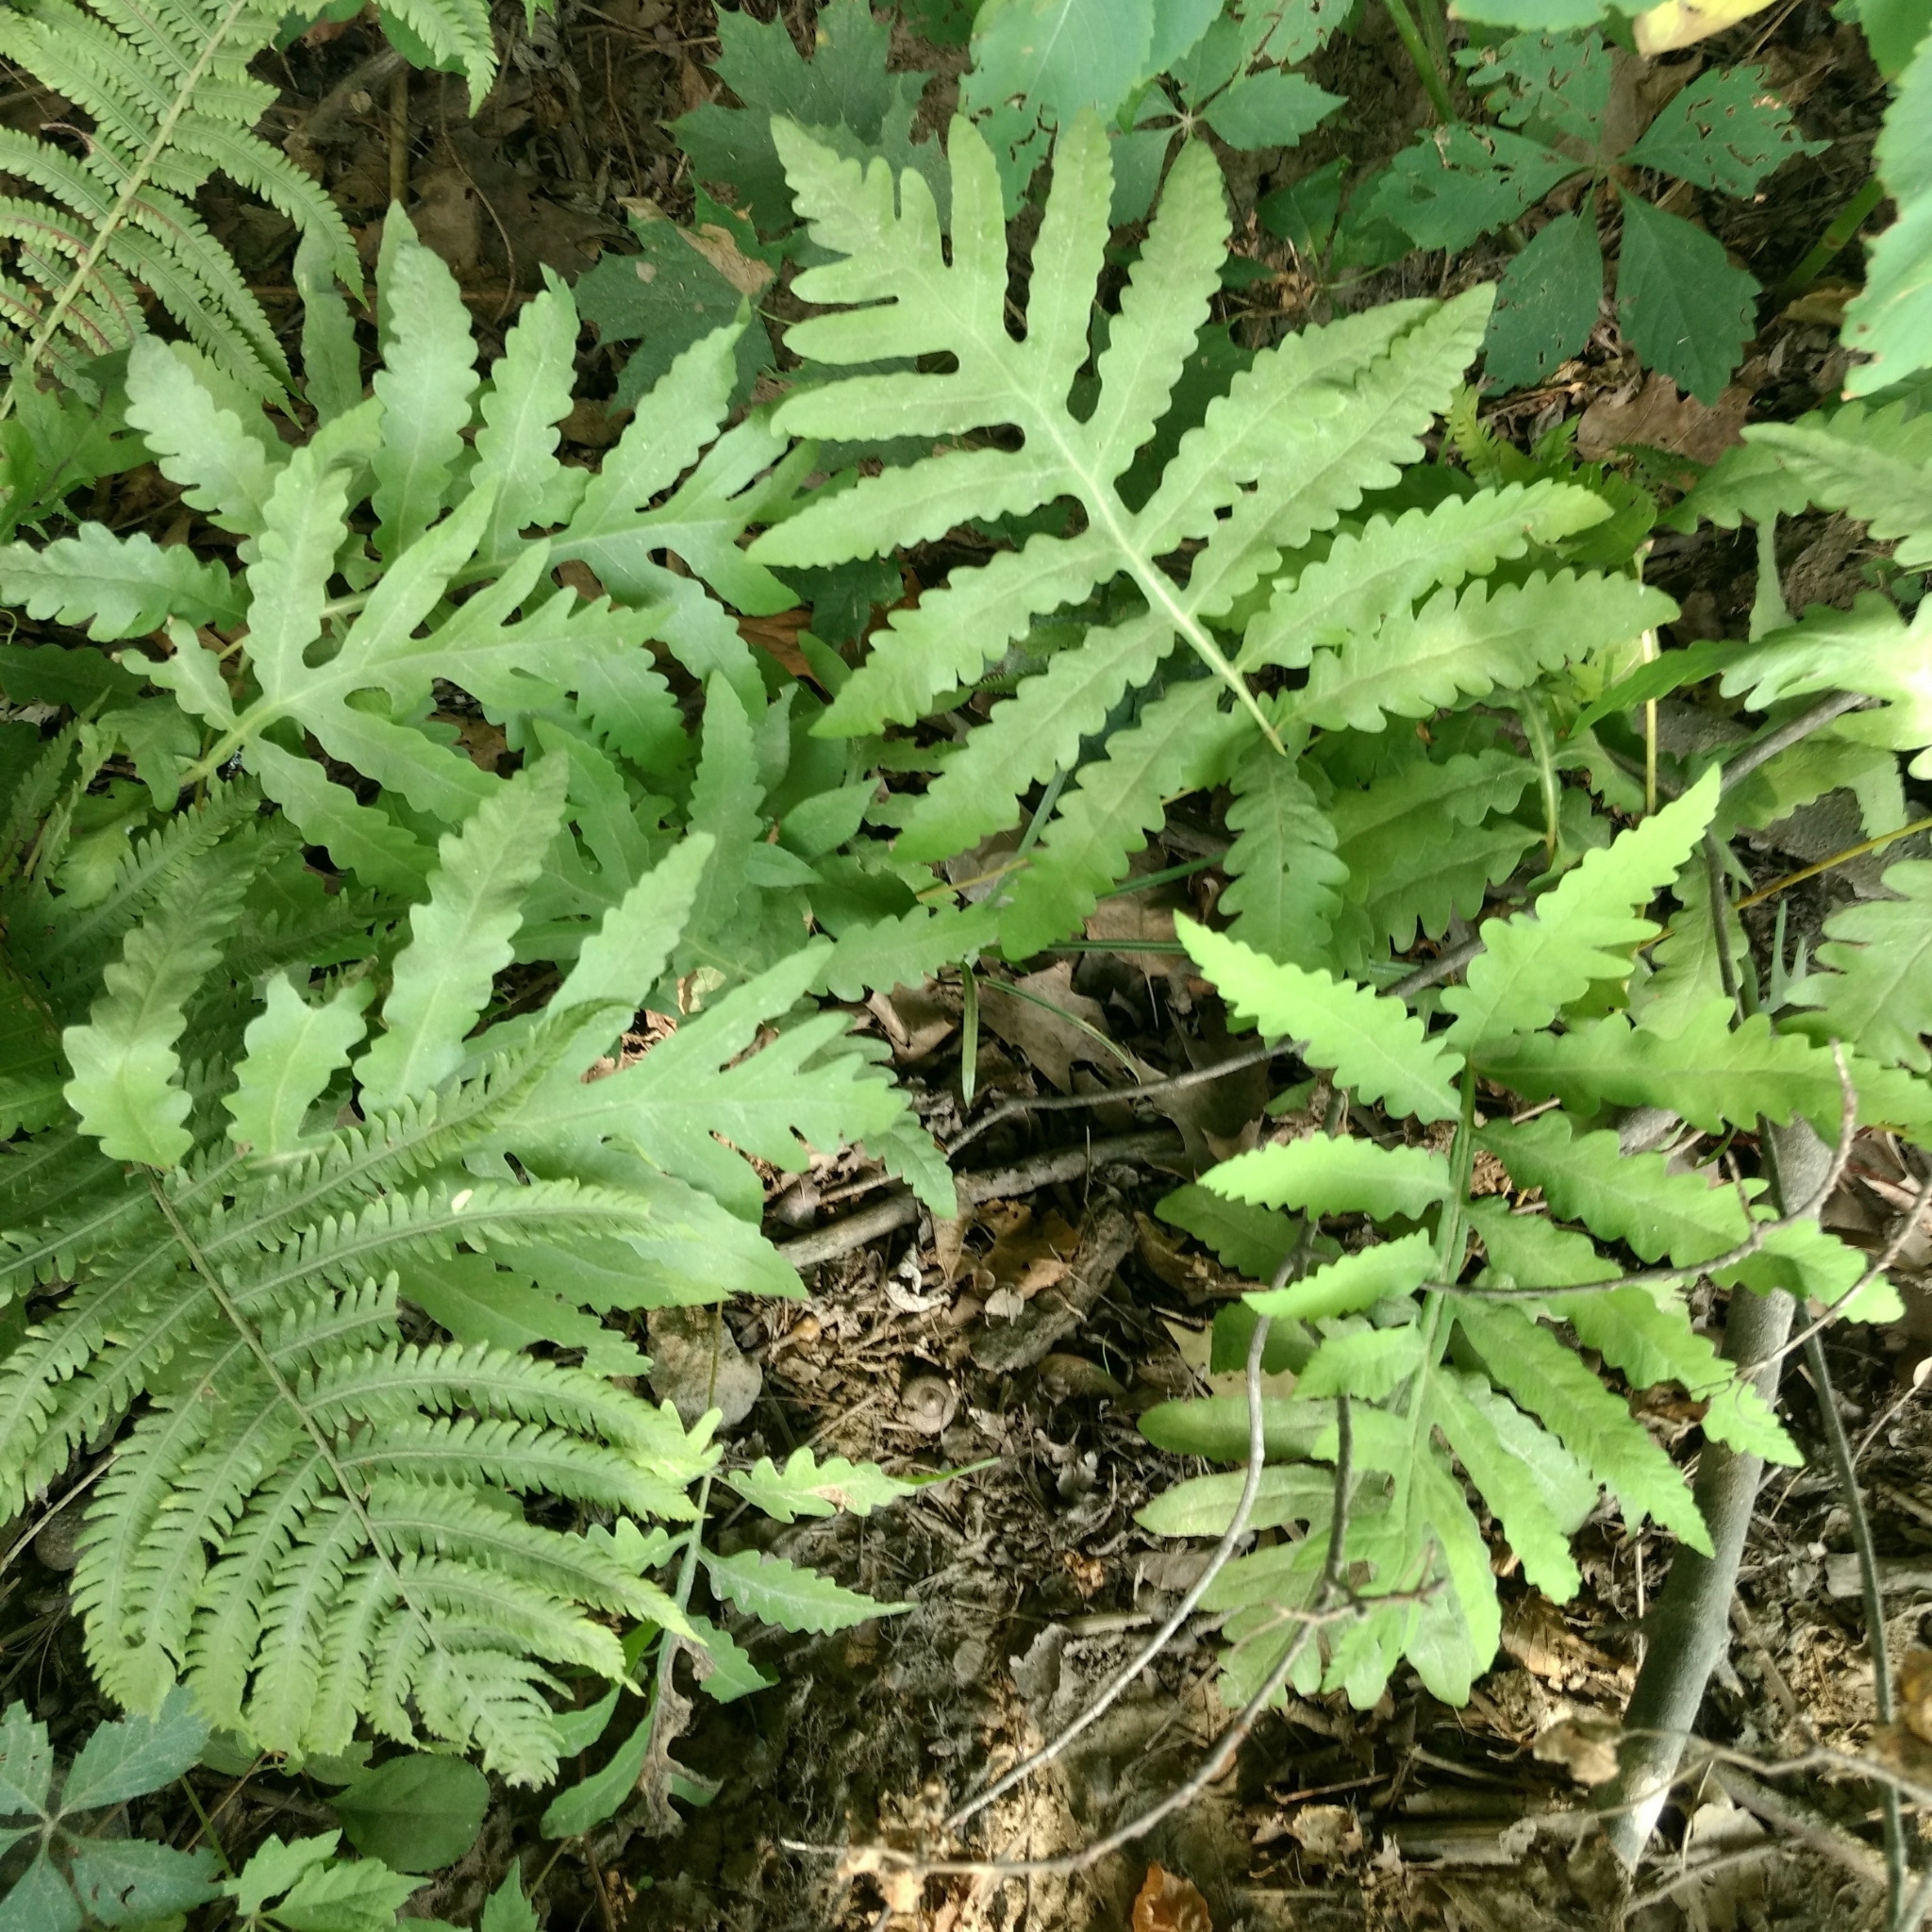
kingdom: Plantae
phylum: Tracheophyta
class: Polypodiopsida
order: Polypodiales
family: Onocleaceae
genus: Onoclea
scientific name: Onoclea sensibilis
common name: Sensitive fern
